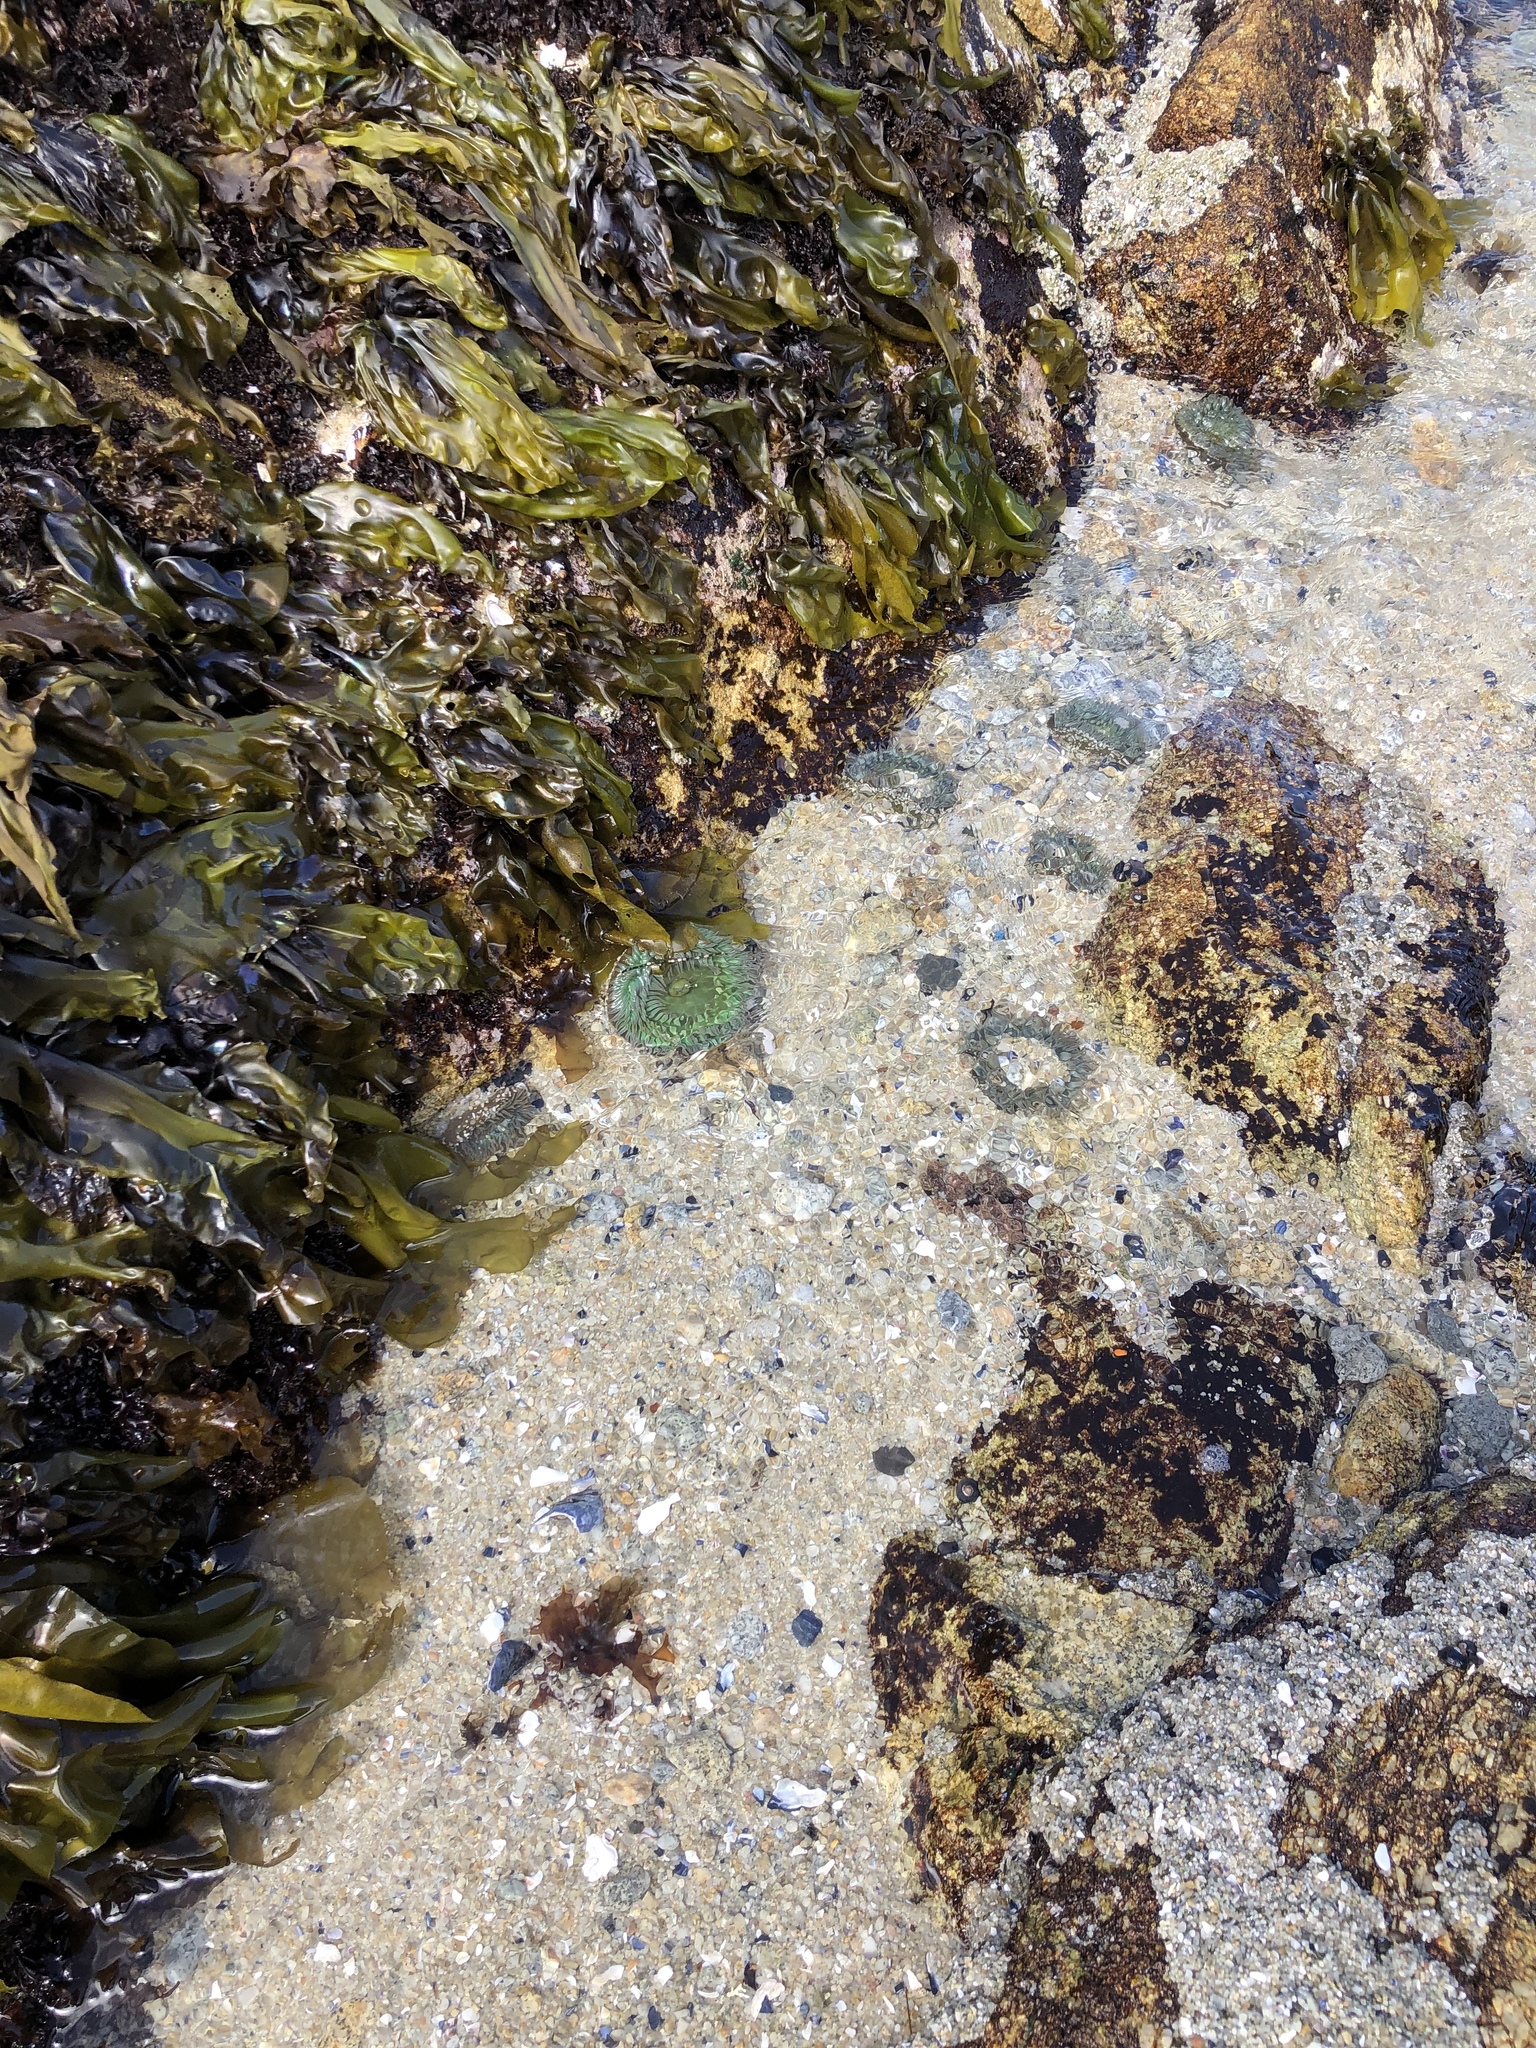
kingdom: Animalia
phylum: Cnidaria
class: Anthozoa
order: Actiniaria
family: Actiniidae
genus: Anthopleura
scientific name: Anthopleura xanthogrammica
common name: Giant green anemone
